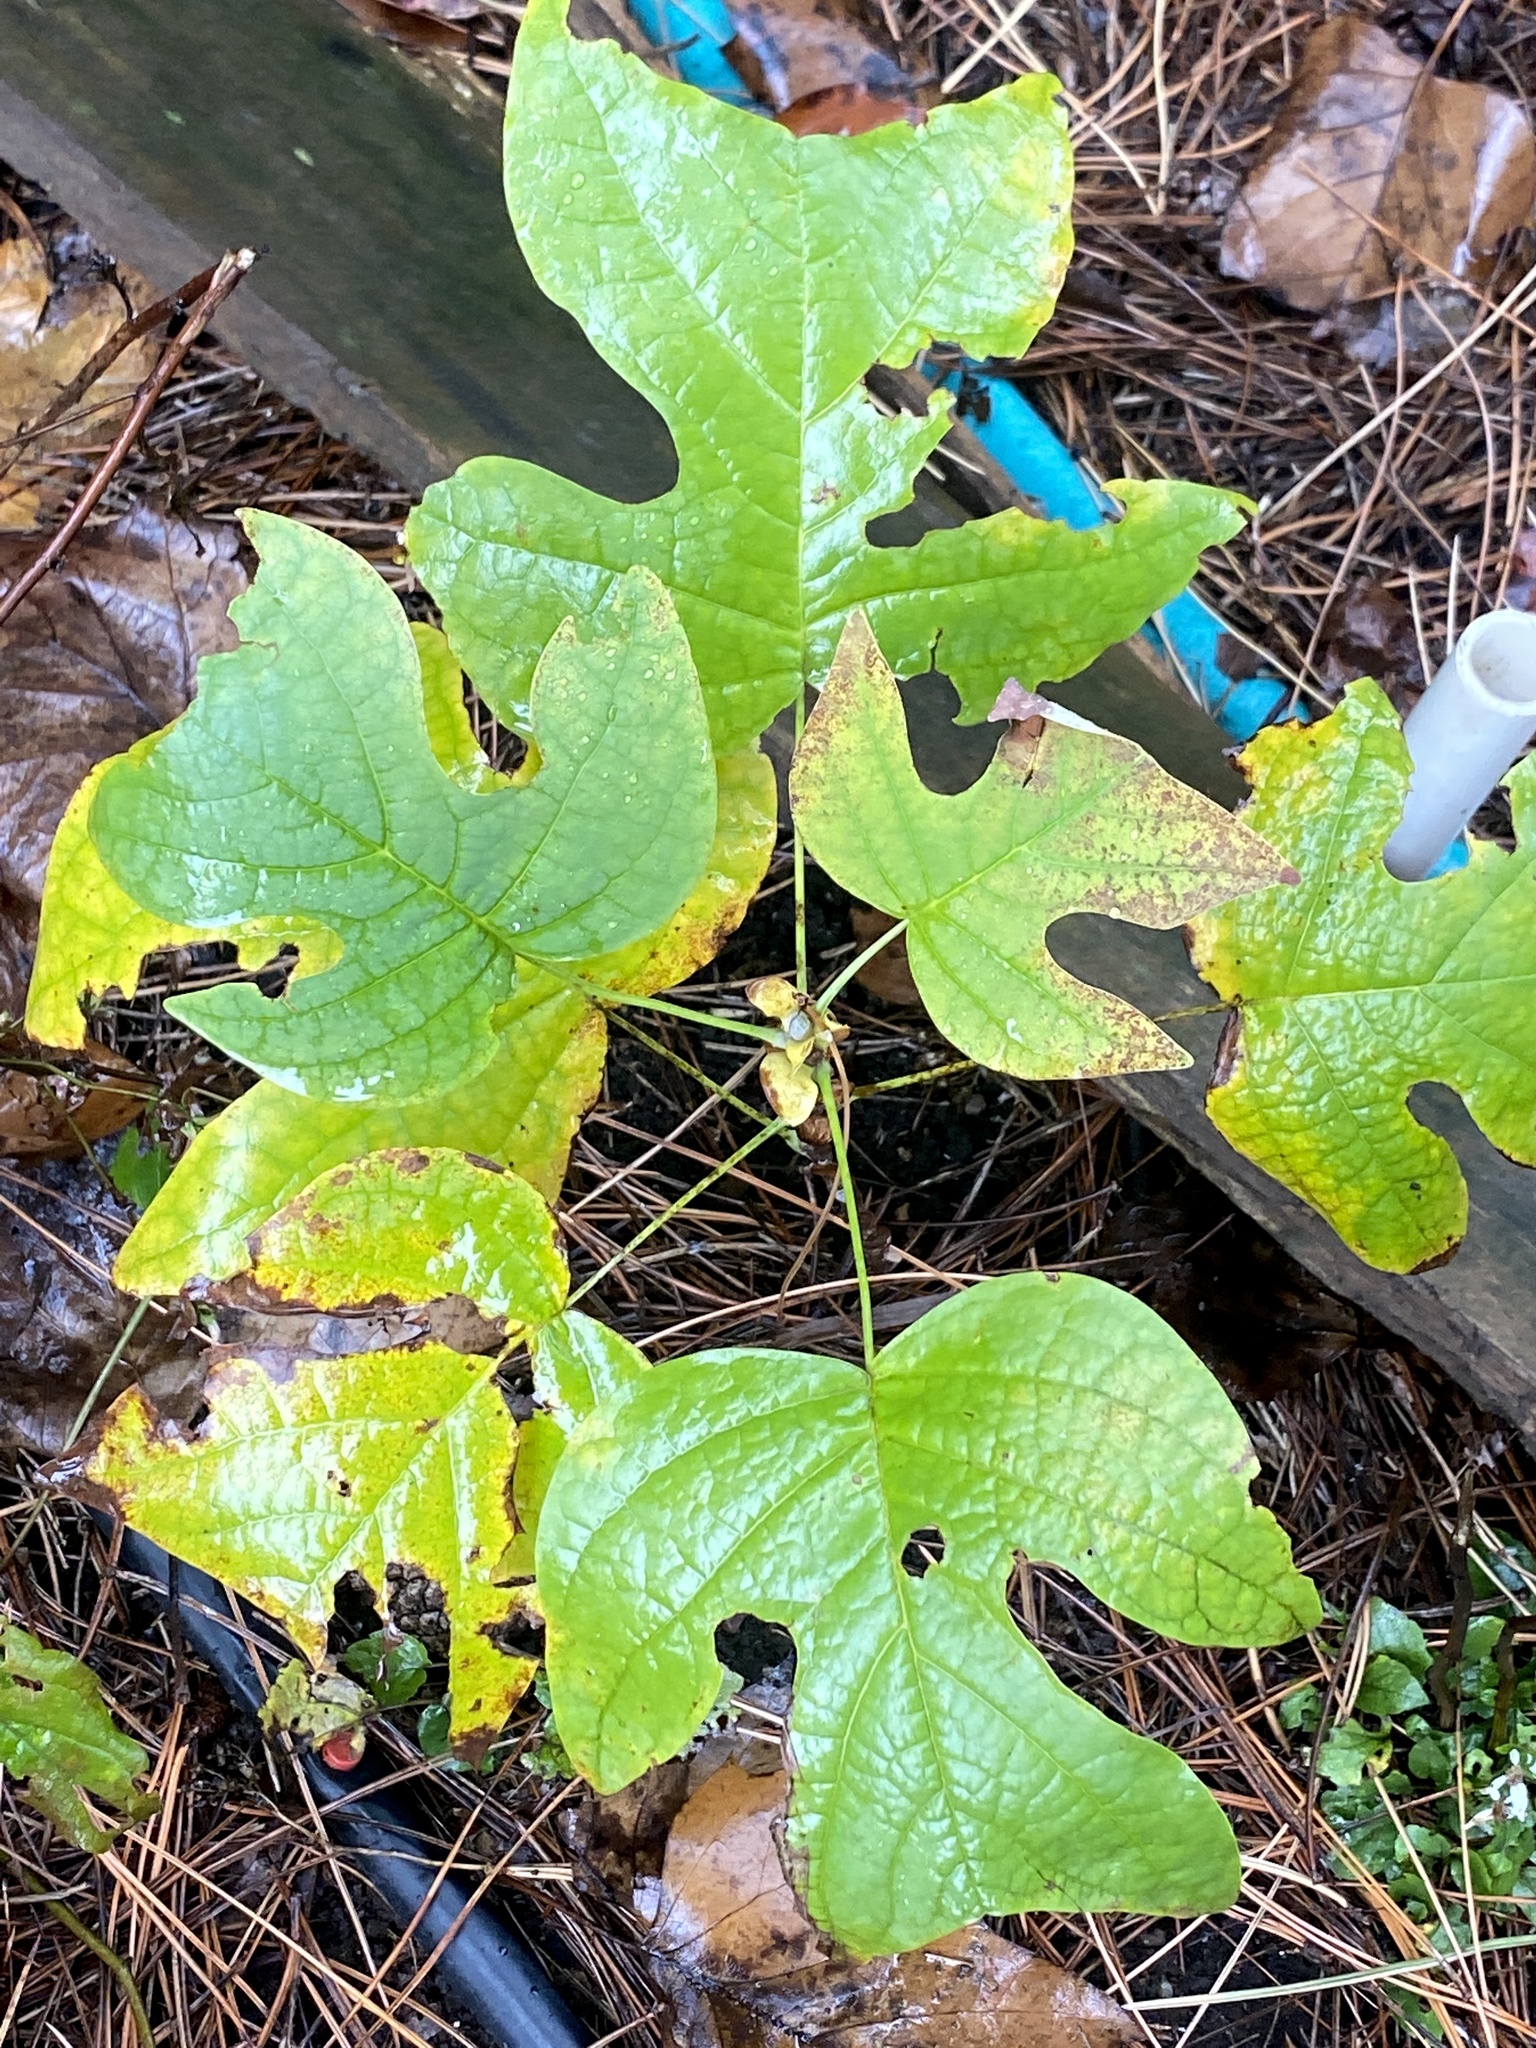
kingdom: Plantae
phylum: Tracheophyta
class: Magnoliopsida
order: Magnoliales
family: Magnoliaceae
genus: Liriodendron
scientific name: Liriodendron tulipifera
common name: Tulip tree
